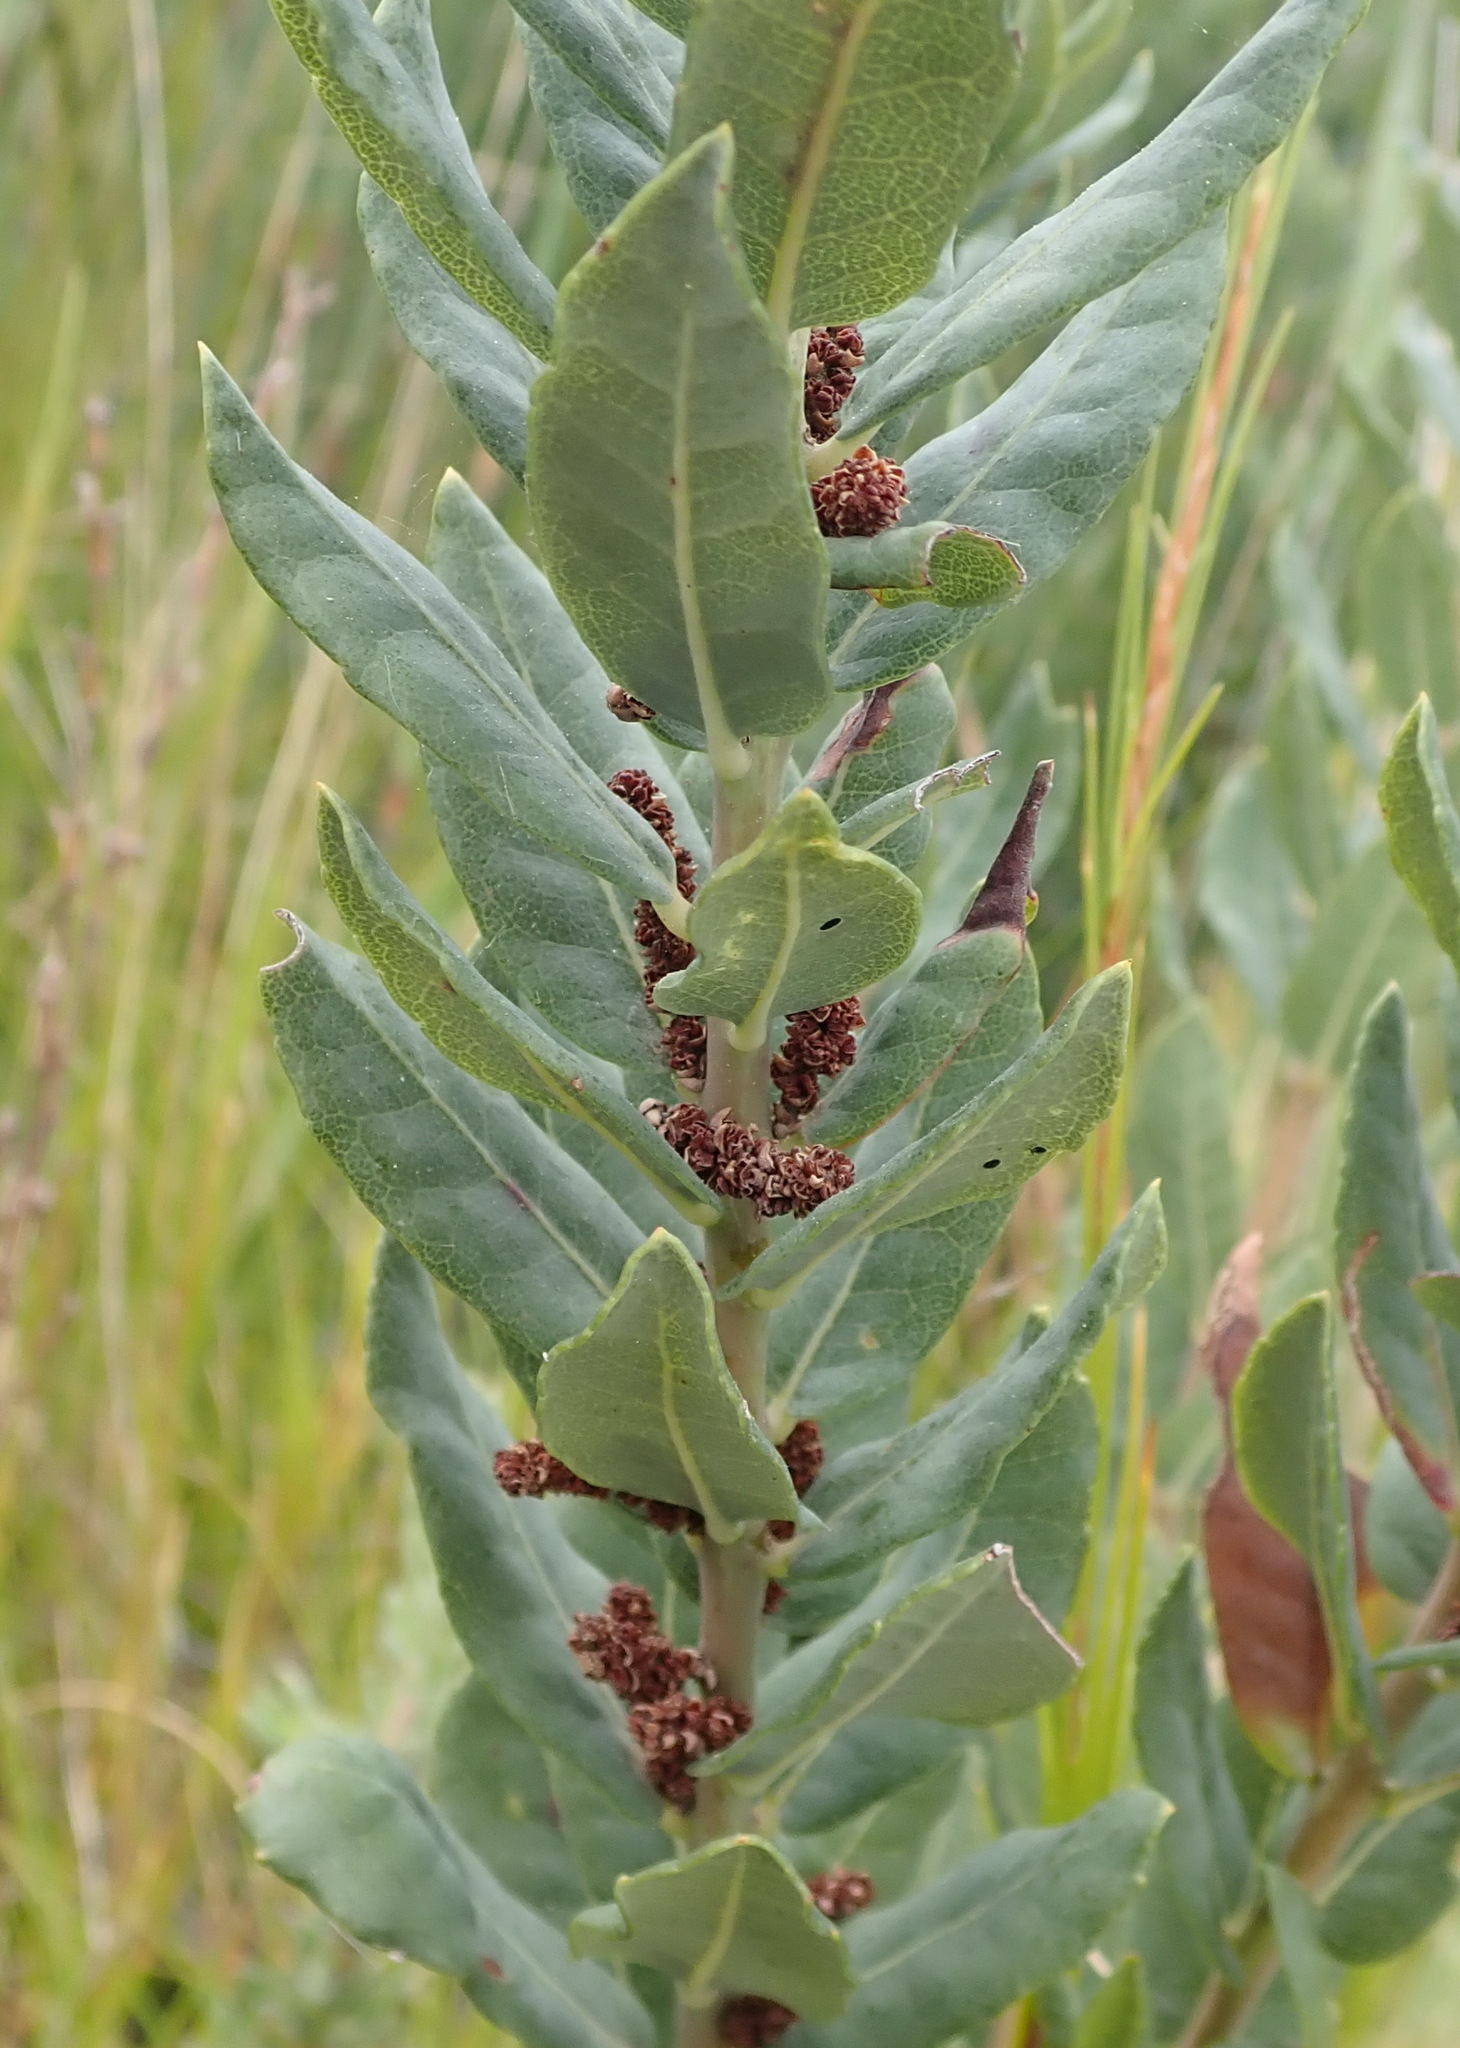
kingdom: Plantae
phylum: Tracheophyta
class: Magnoliopsida
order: Fagales
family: Myricaceae
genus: Morella
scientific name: Morella humilis
